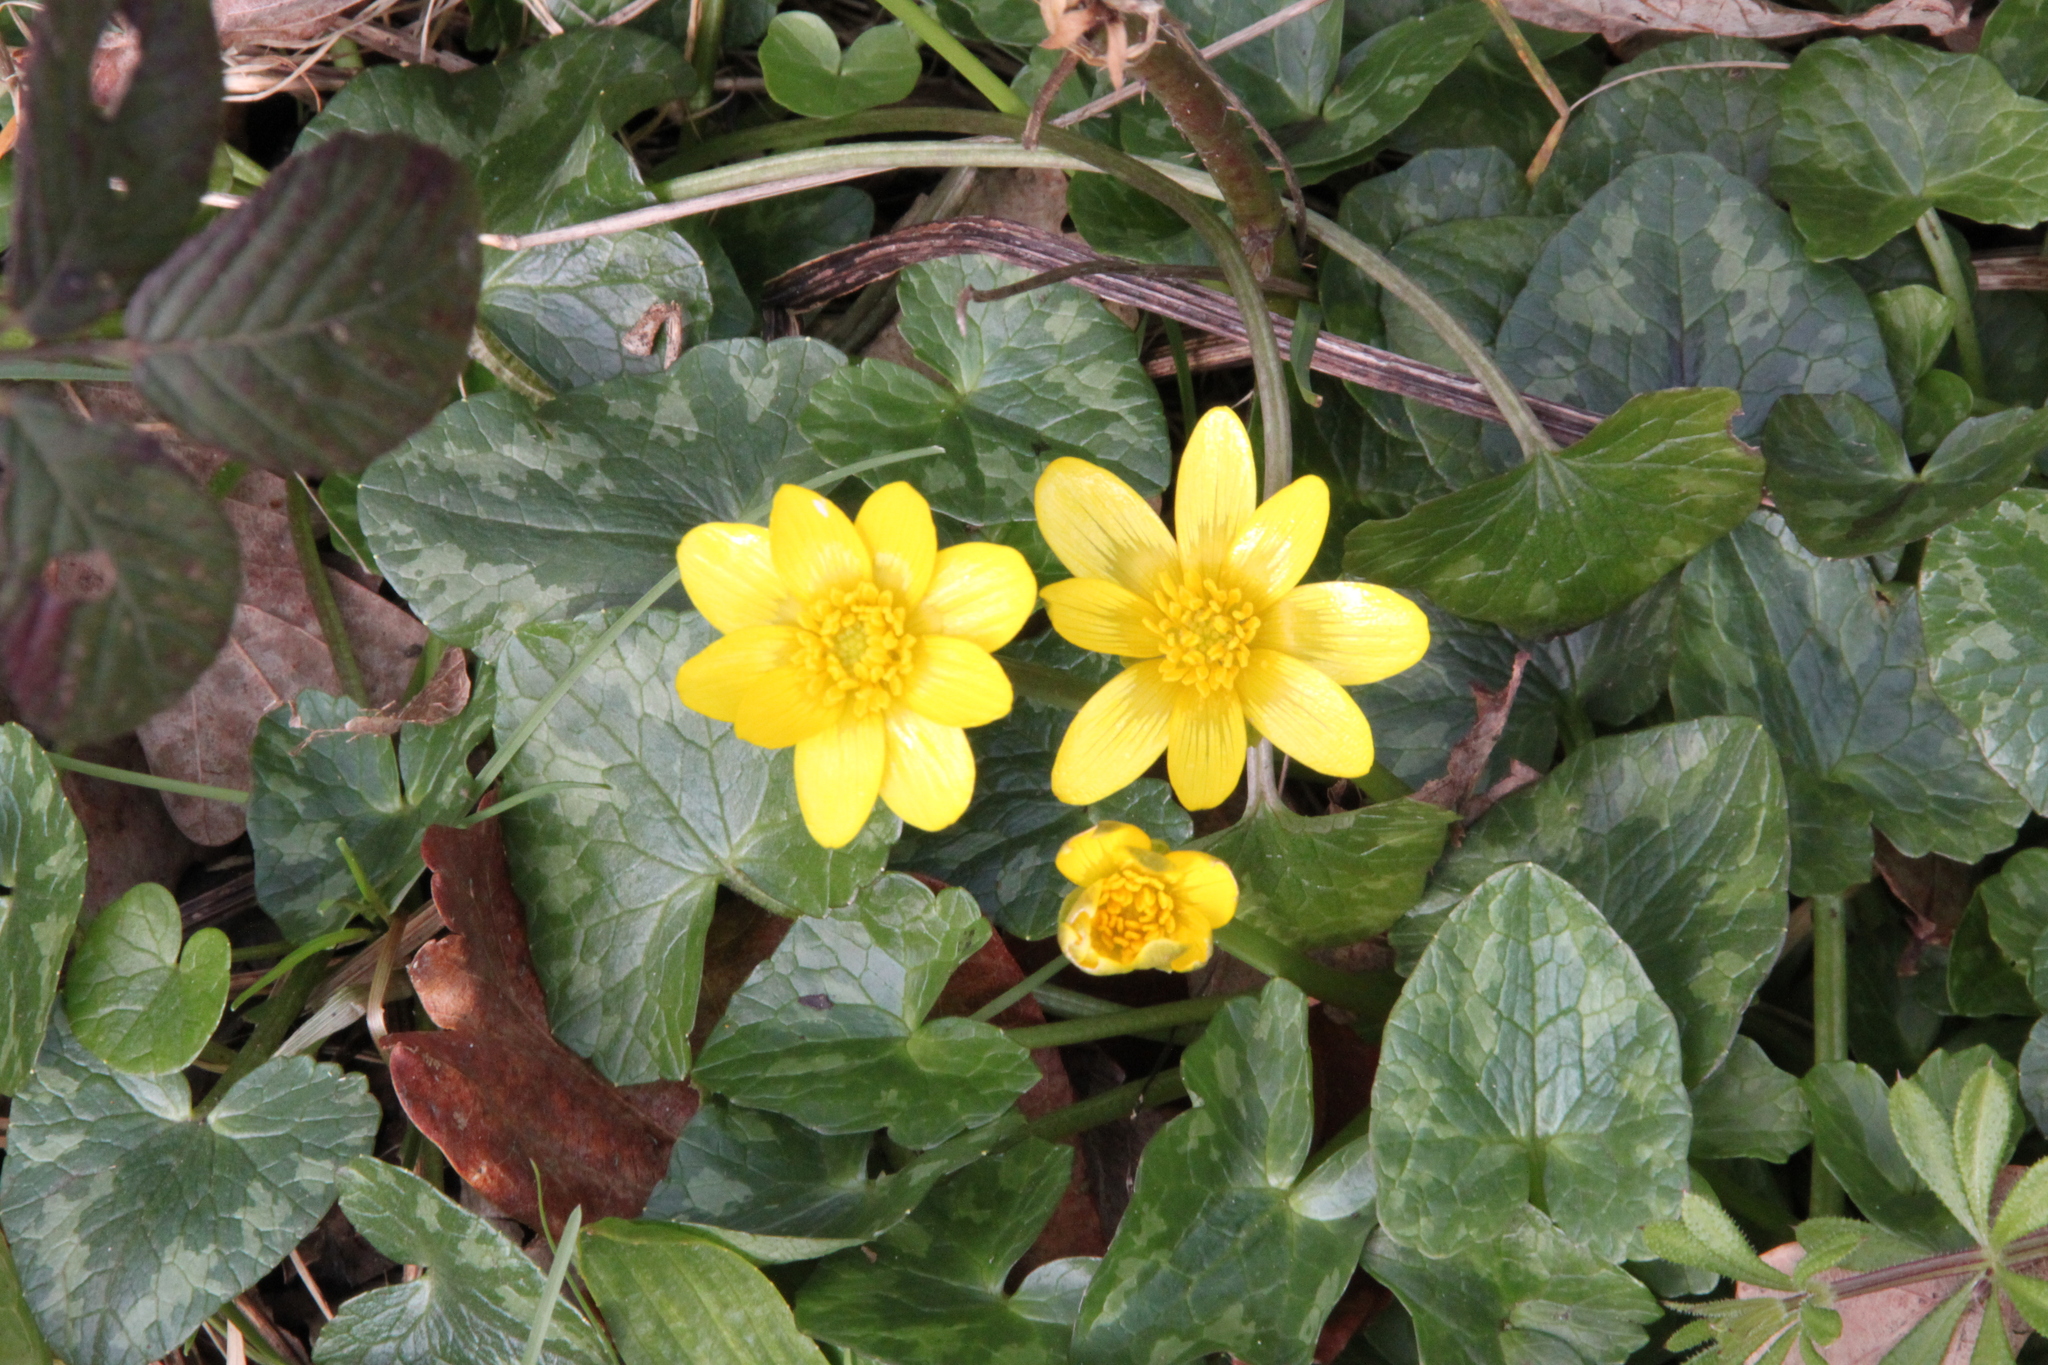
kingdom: Plantae
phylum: Tracheophyta
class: Magnoliopsida
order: Ranunculales
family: Ranunculaceae
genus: Ficaria
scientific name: Ficaria verna
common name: Lesser celandine
